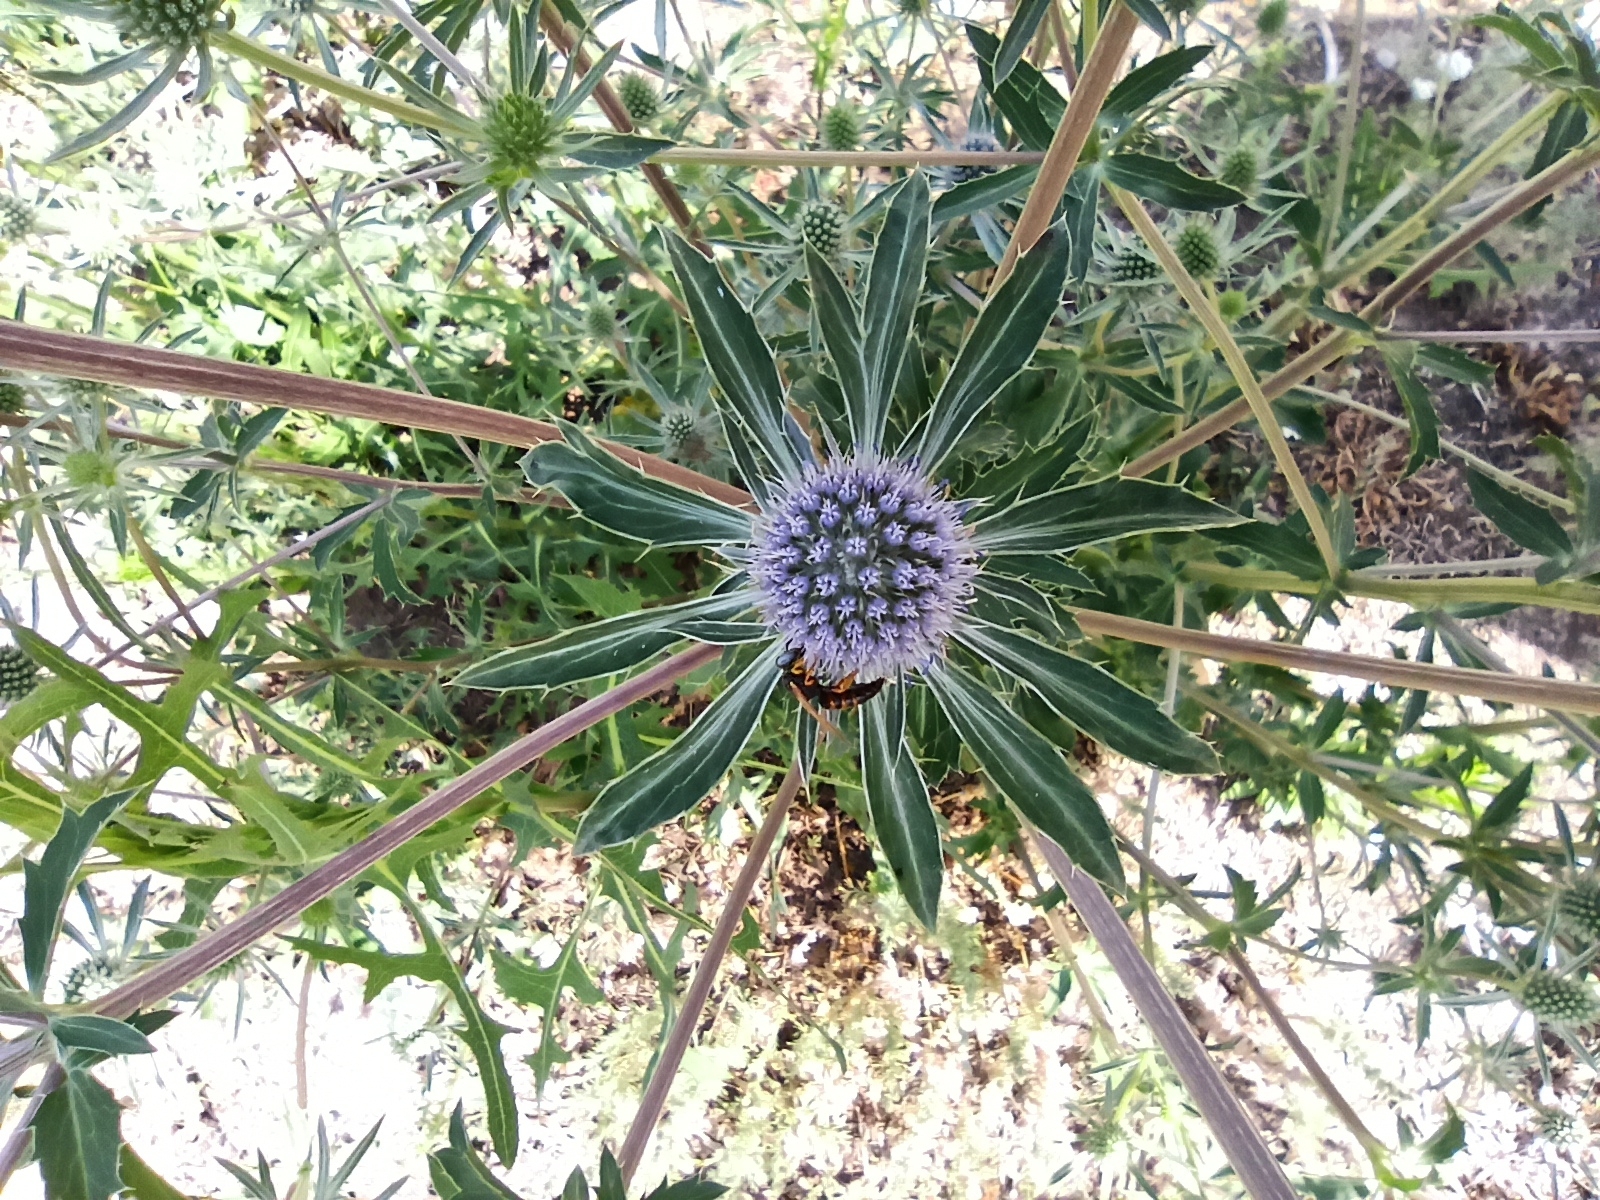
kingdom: Plantae
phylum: Tracheophyta
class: Magnoliopsida
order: Apiales
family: Apiaceae
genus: Eryngium
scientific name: Eryngium planum
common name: Blue eryngo
